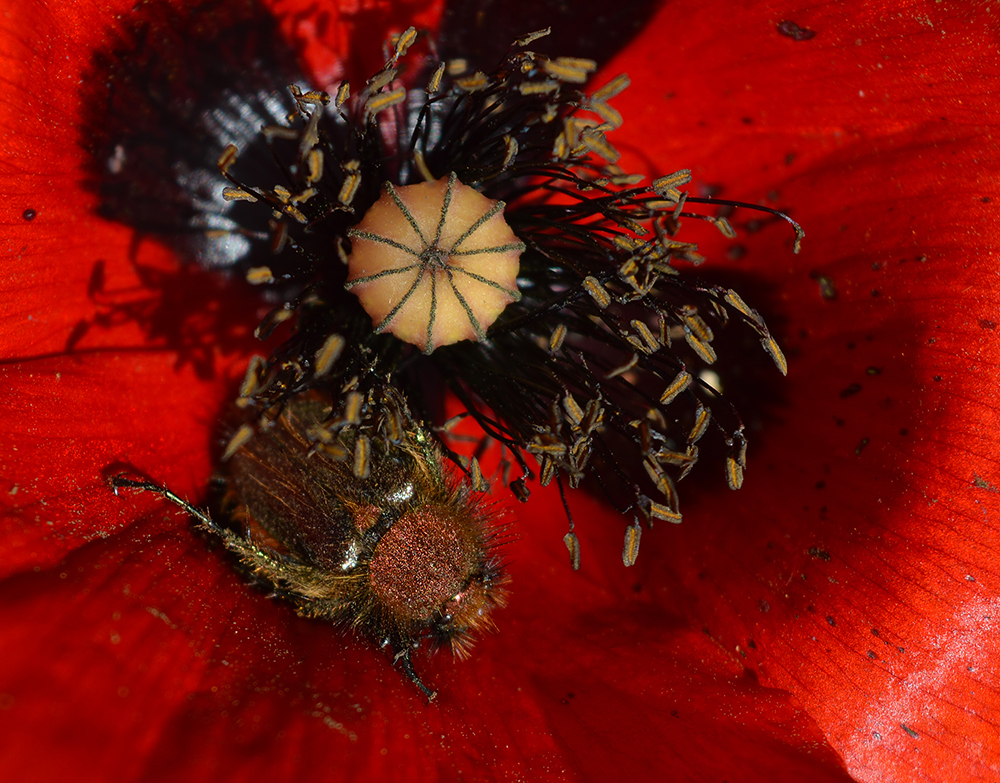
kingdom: Animalia
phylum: Arthropoda
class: Insecta
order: Coleoptera
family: Glaphyridae
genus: Pygopleurus
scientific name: Pygopleurus chrysonotus
